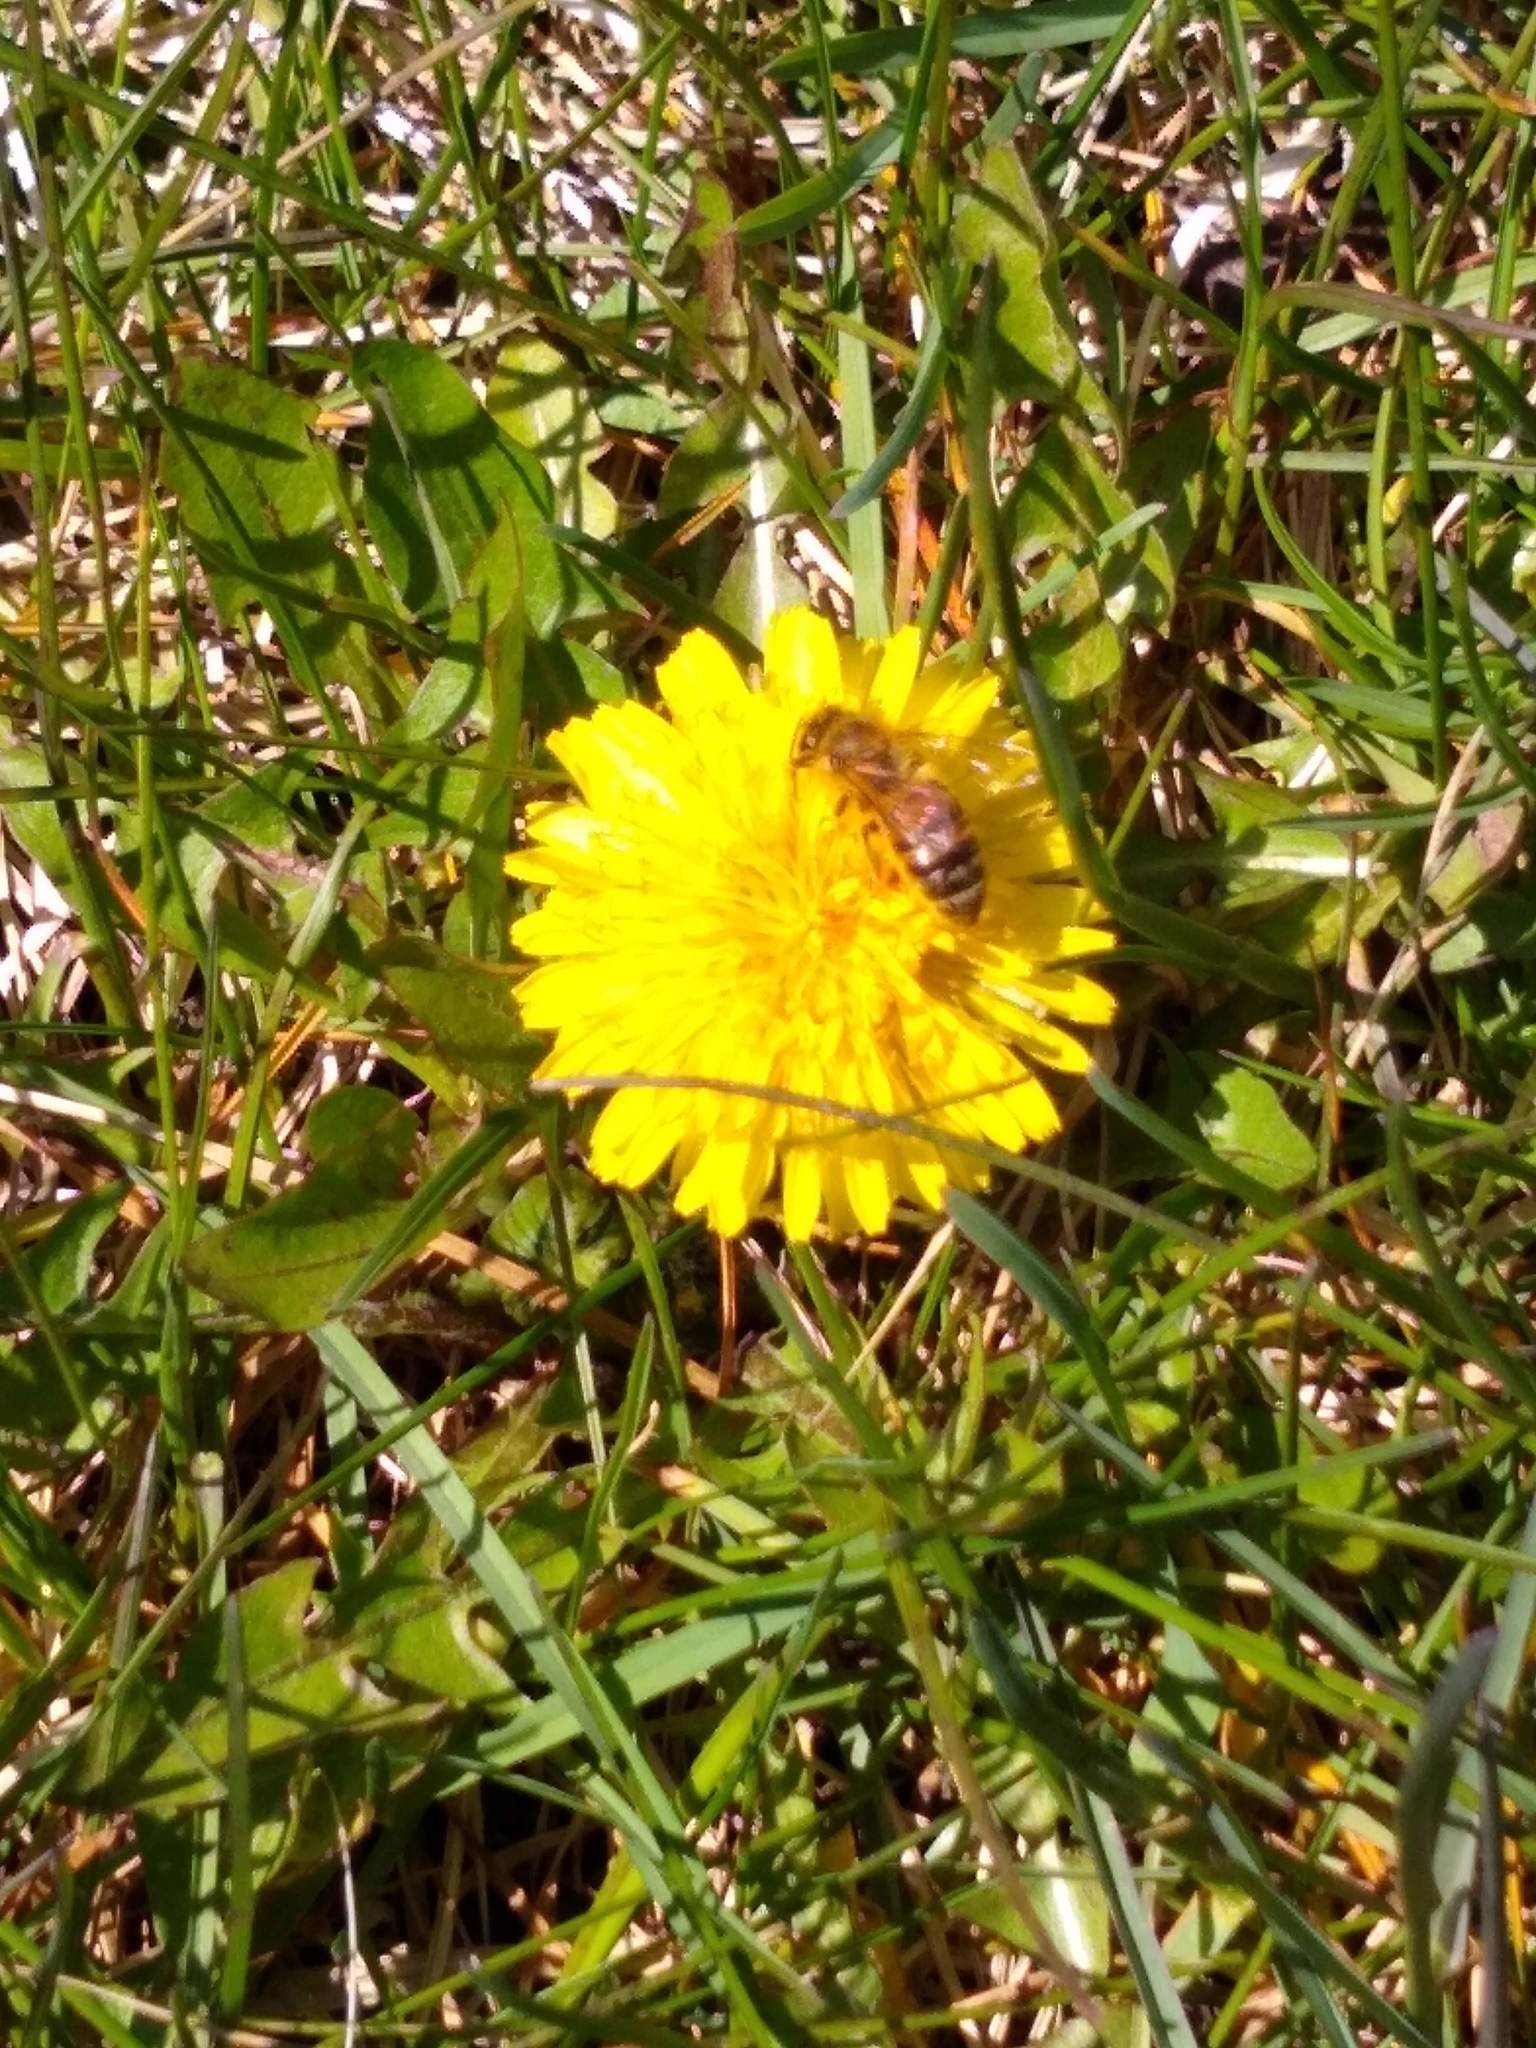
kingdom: Animalia
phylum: Arthropoda
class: Insecta
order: Hymenoptera
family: Apidae
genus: Apis
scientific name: Apis mellifera
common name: Honey bee
